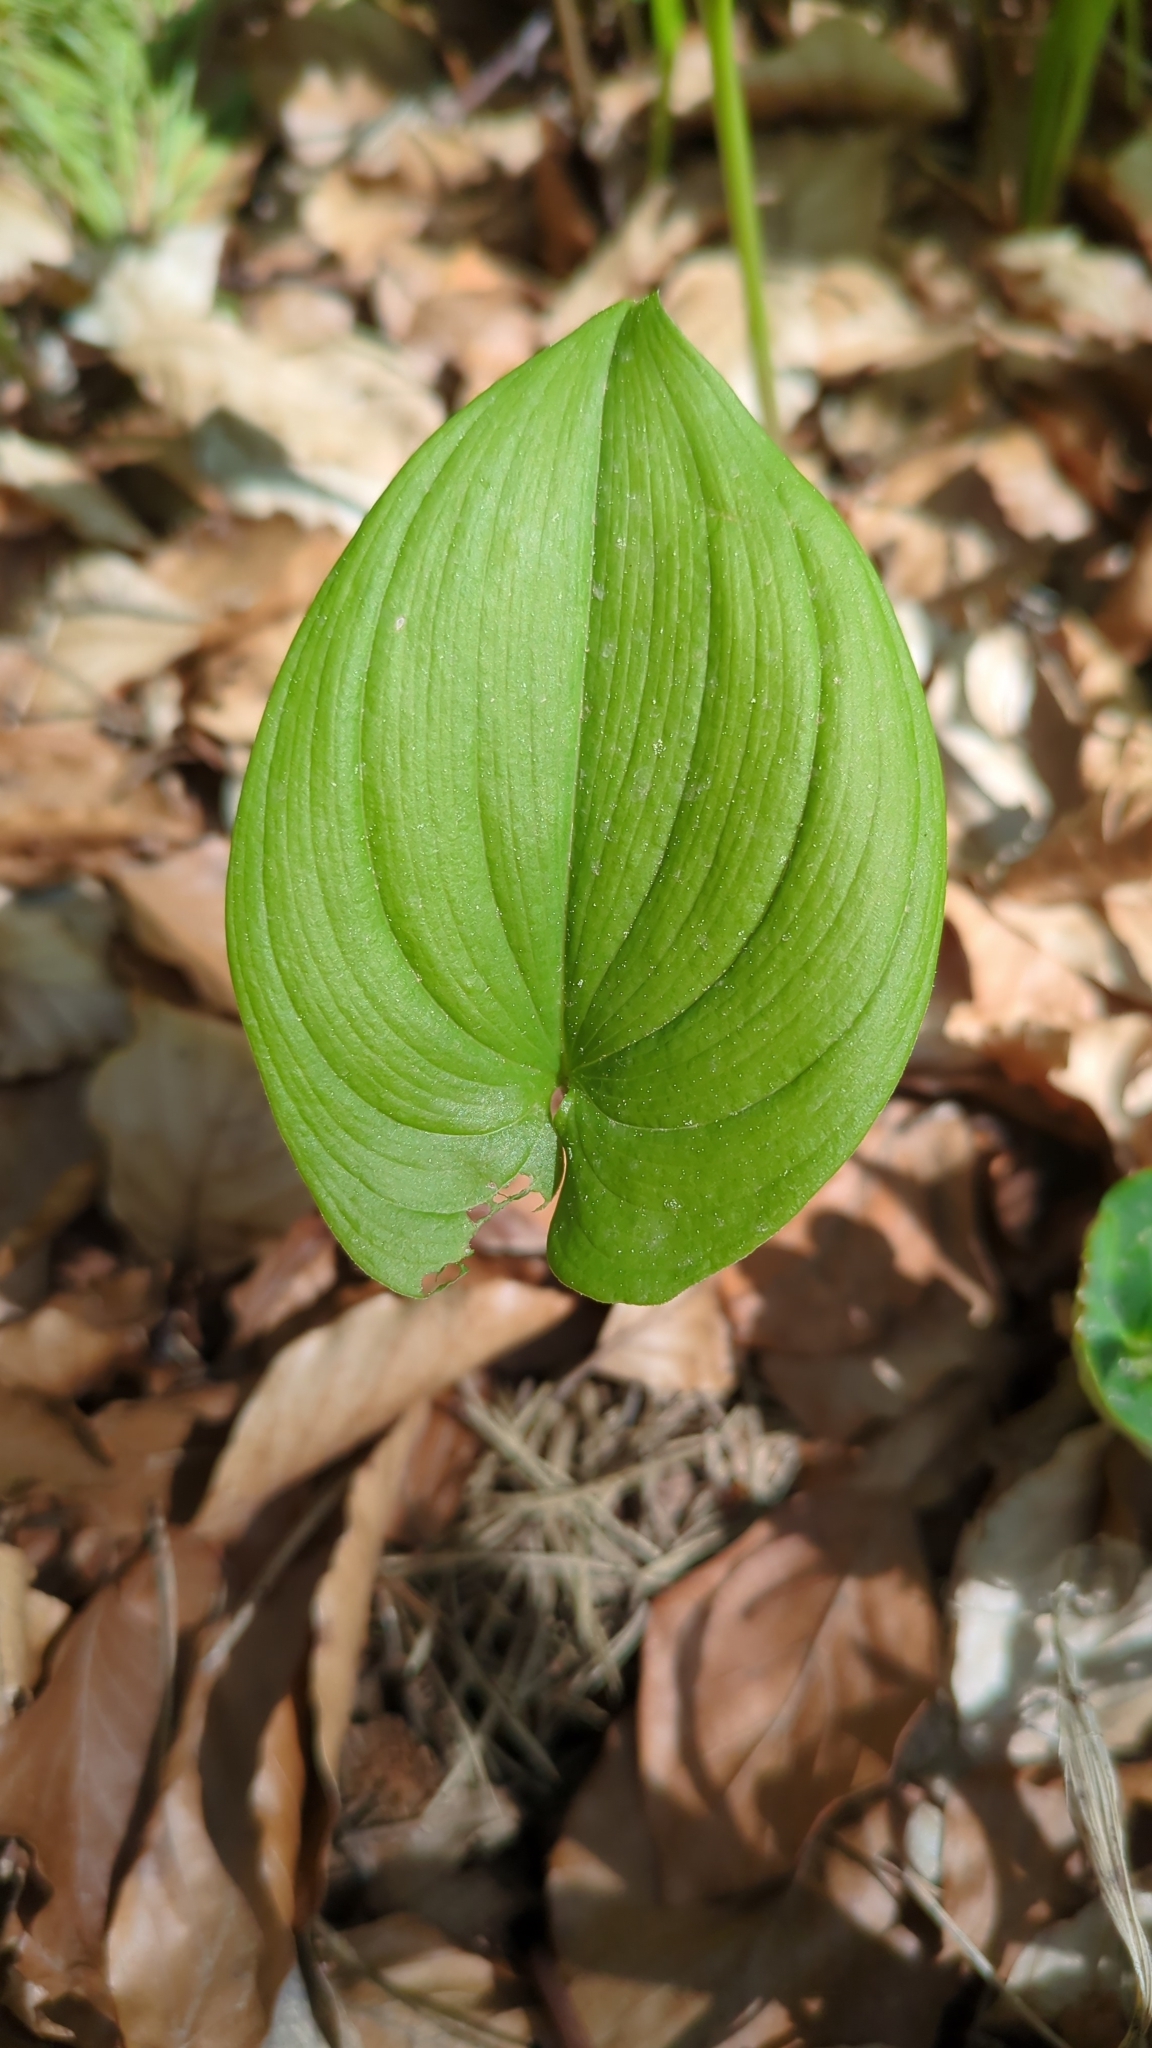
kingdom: Plantae
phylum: Tracheophyta
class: Liliopsida
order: Asparagales
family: Asparagaceae
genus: Maianthemum
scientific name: Maianthemum bifolium
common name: May lily
